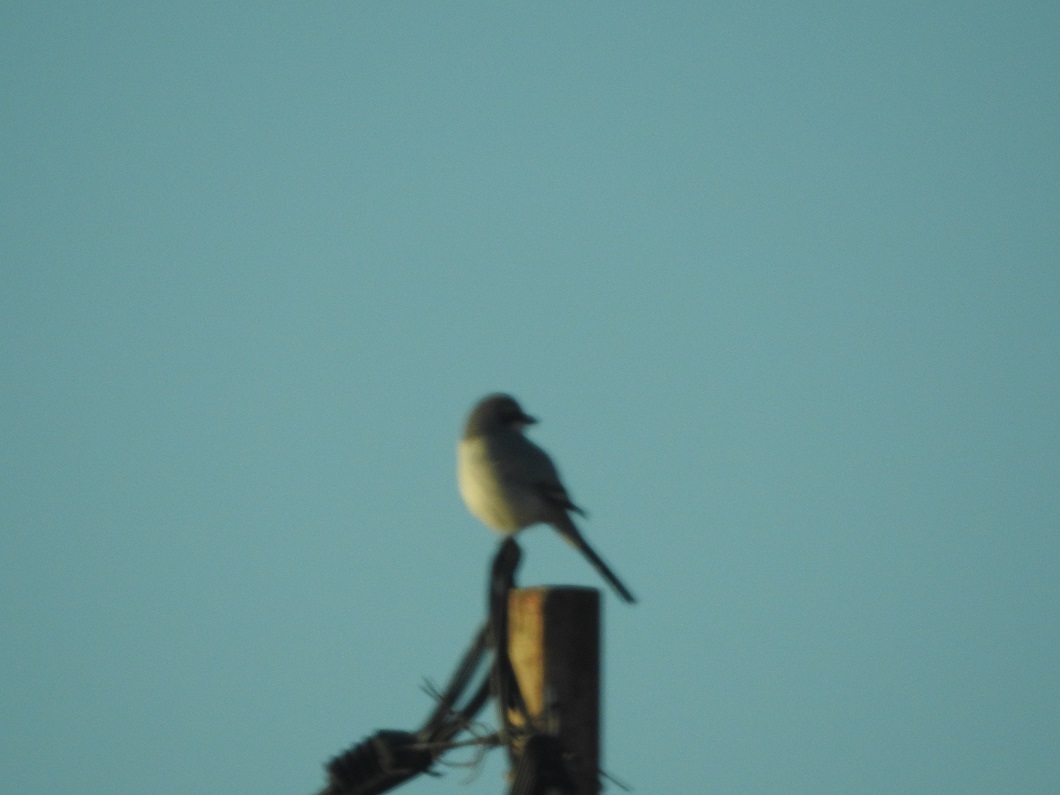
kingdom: Animalia
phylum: Chordata
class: Aves
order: Passeriformes
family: Laniidae
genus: Lanius
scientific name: Lanius excubitor
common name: Great grey shrike
